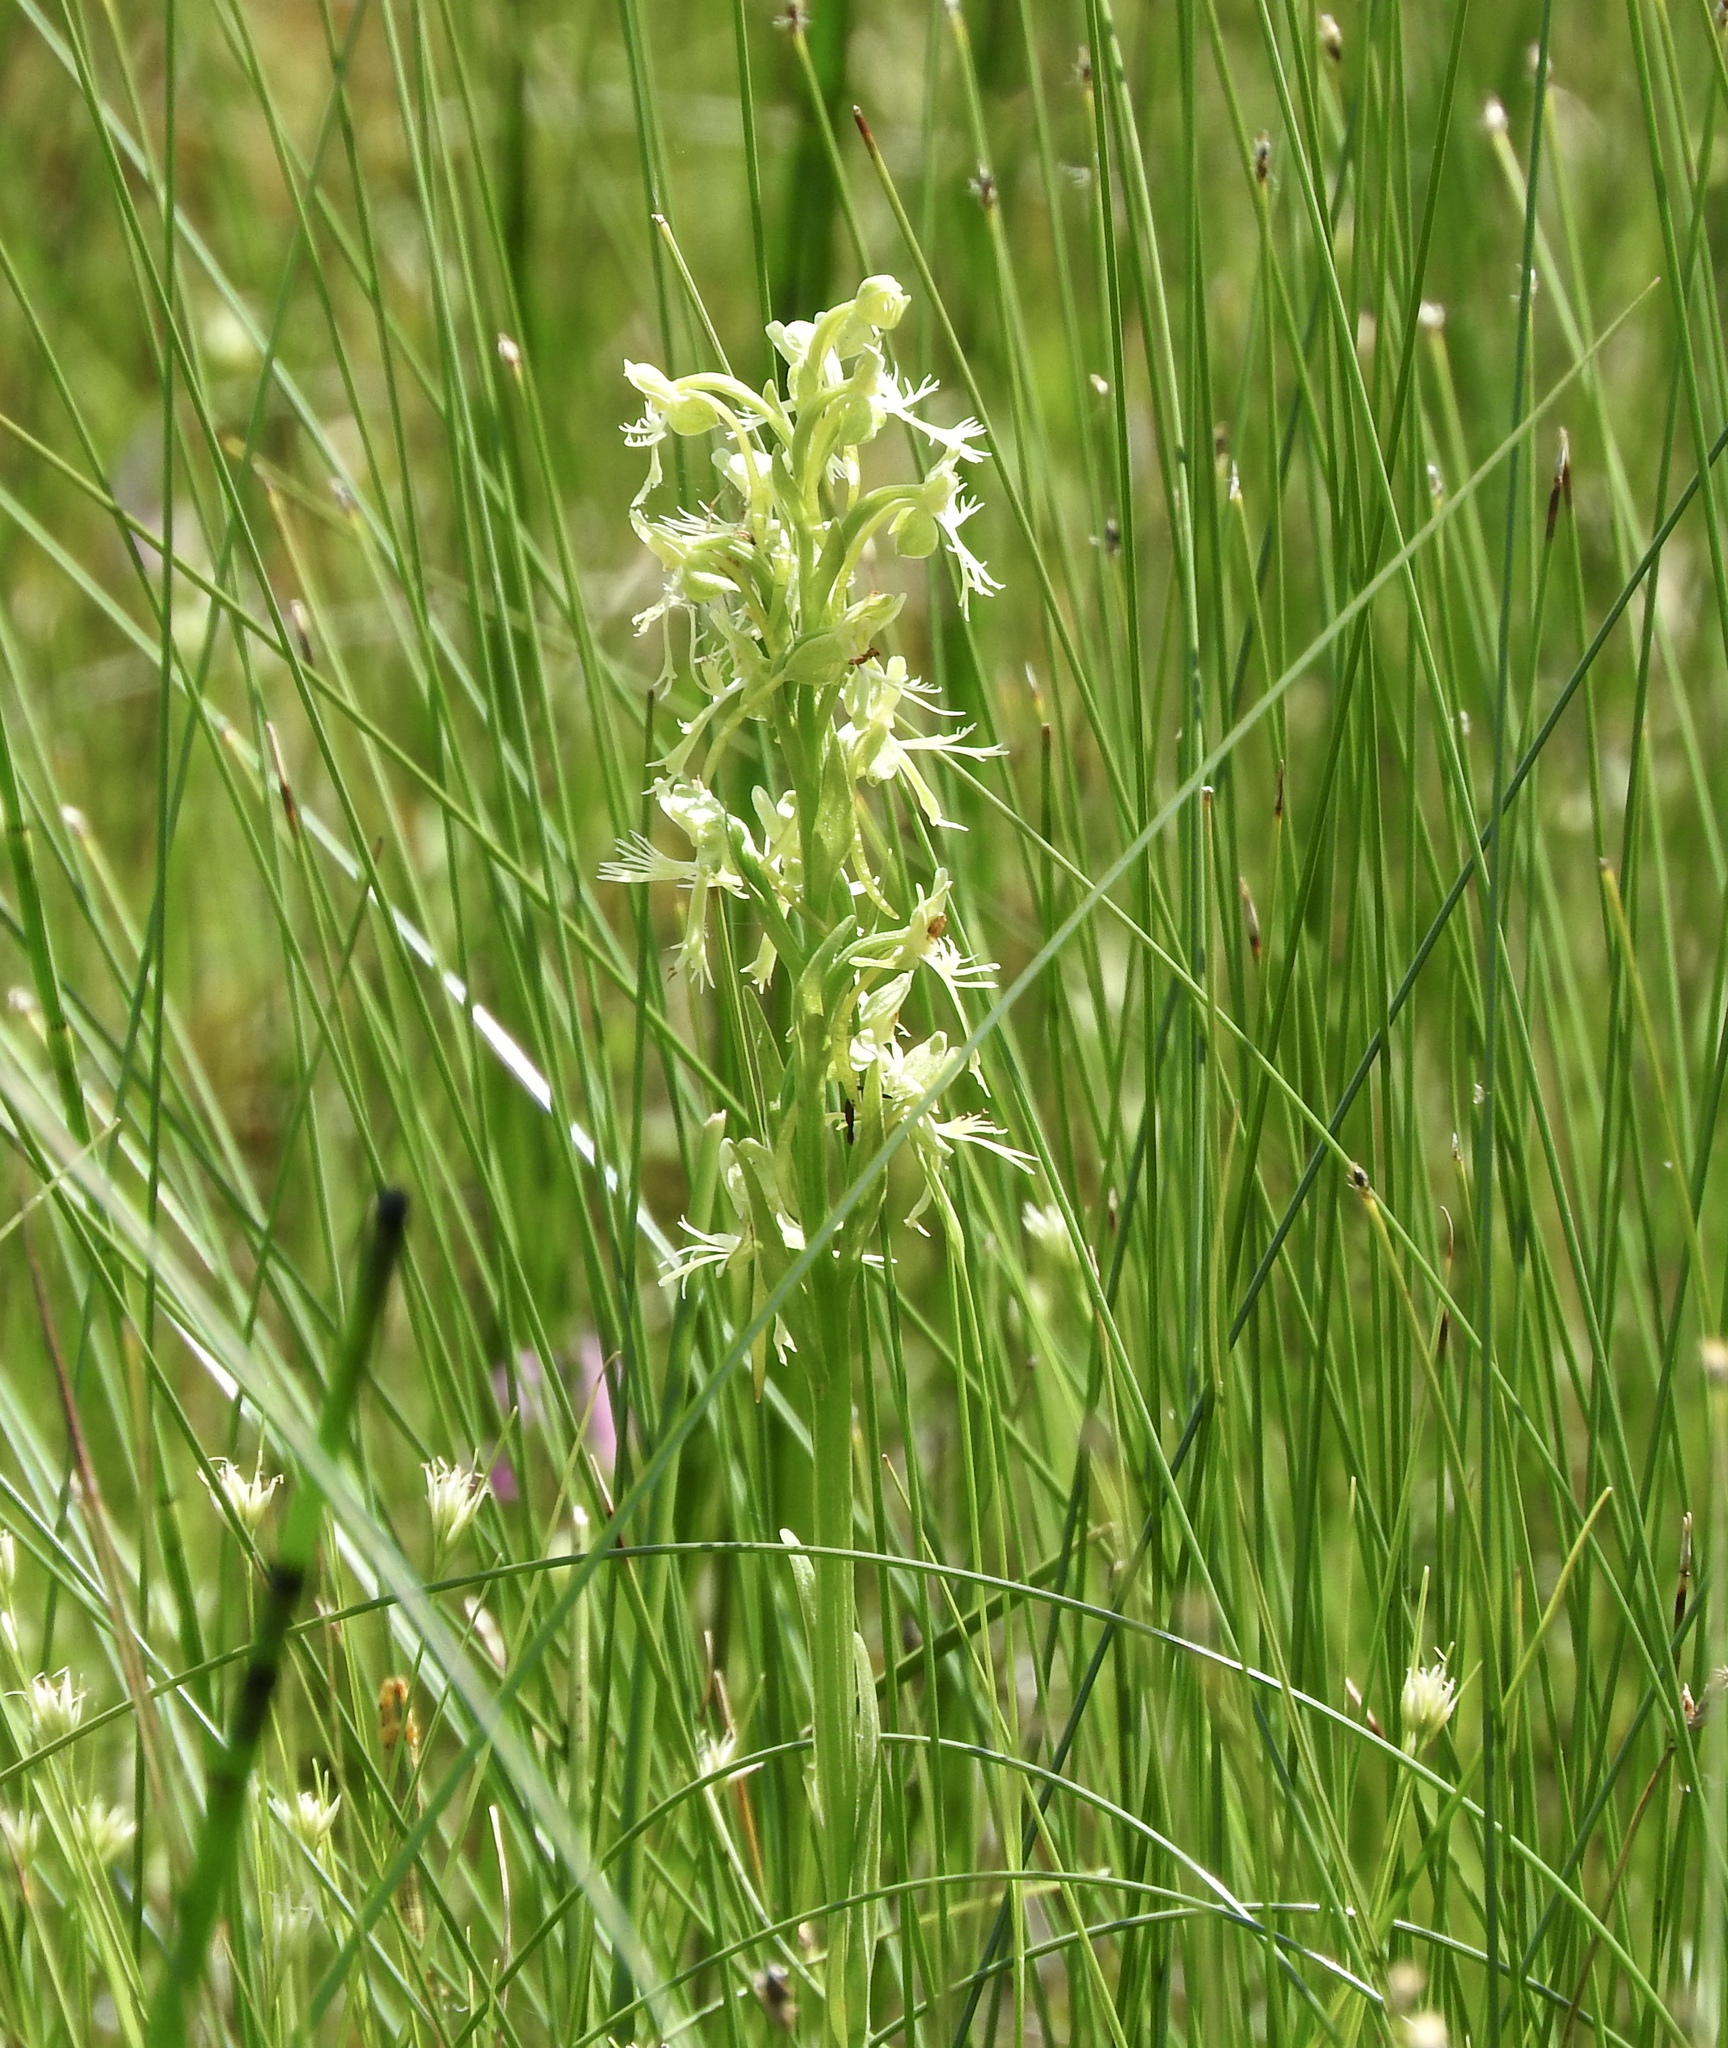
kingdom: Plantae
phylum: Tracheophyta
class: Liliopsida
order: Asparagales
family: Orchidaceae
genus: Platanthera
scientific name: Platanthera lacera
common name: Green fringed orchid
